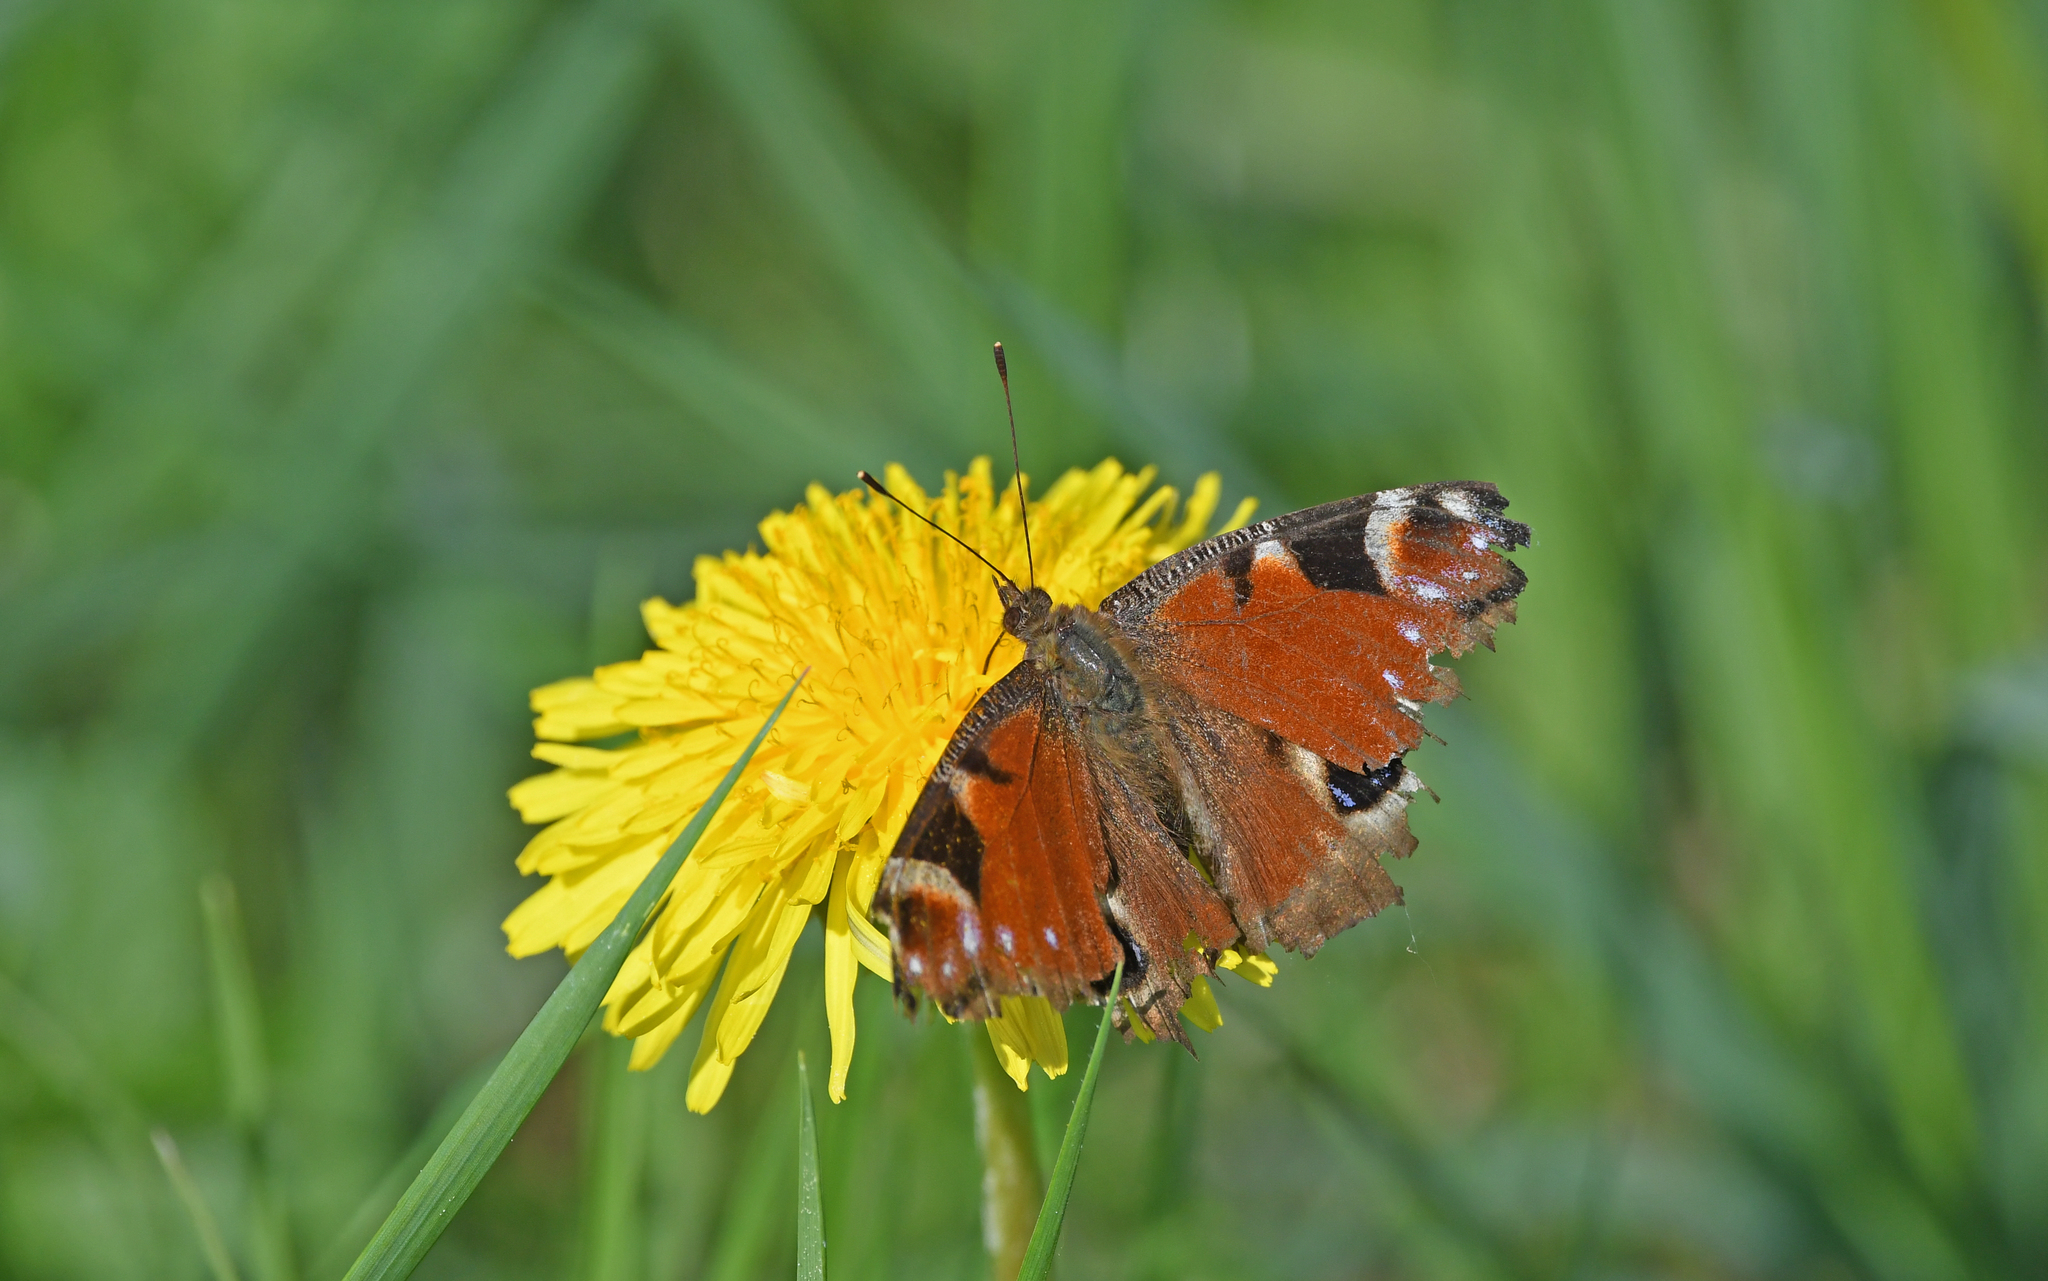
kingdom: Animalia
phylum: Arthropoda
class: Insecta
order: Lepidoptera
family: Nymphalidae
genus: Aglais
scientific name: Aglais io
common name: Peacock
